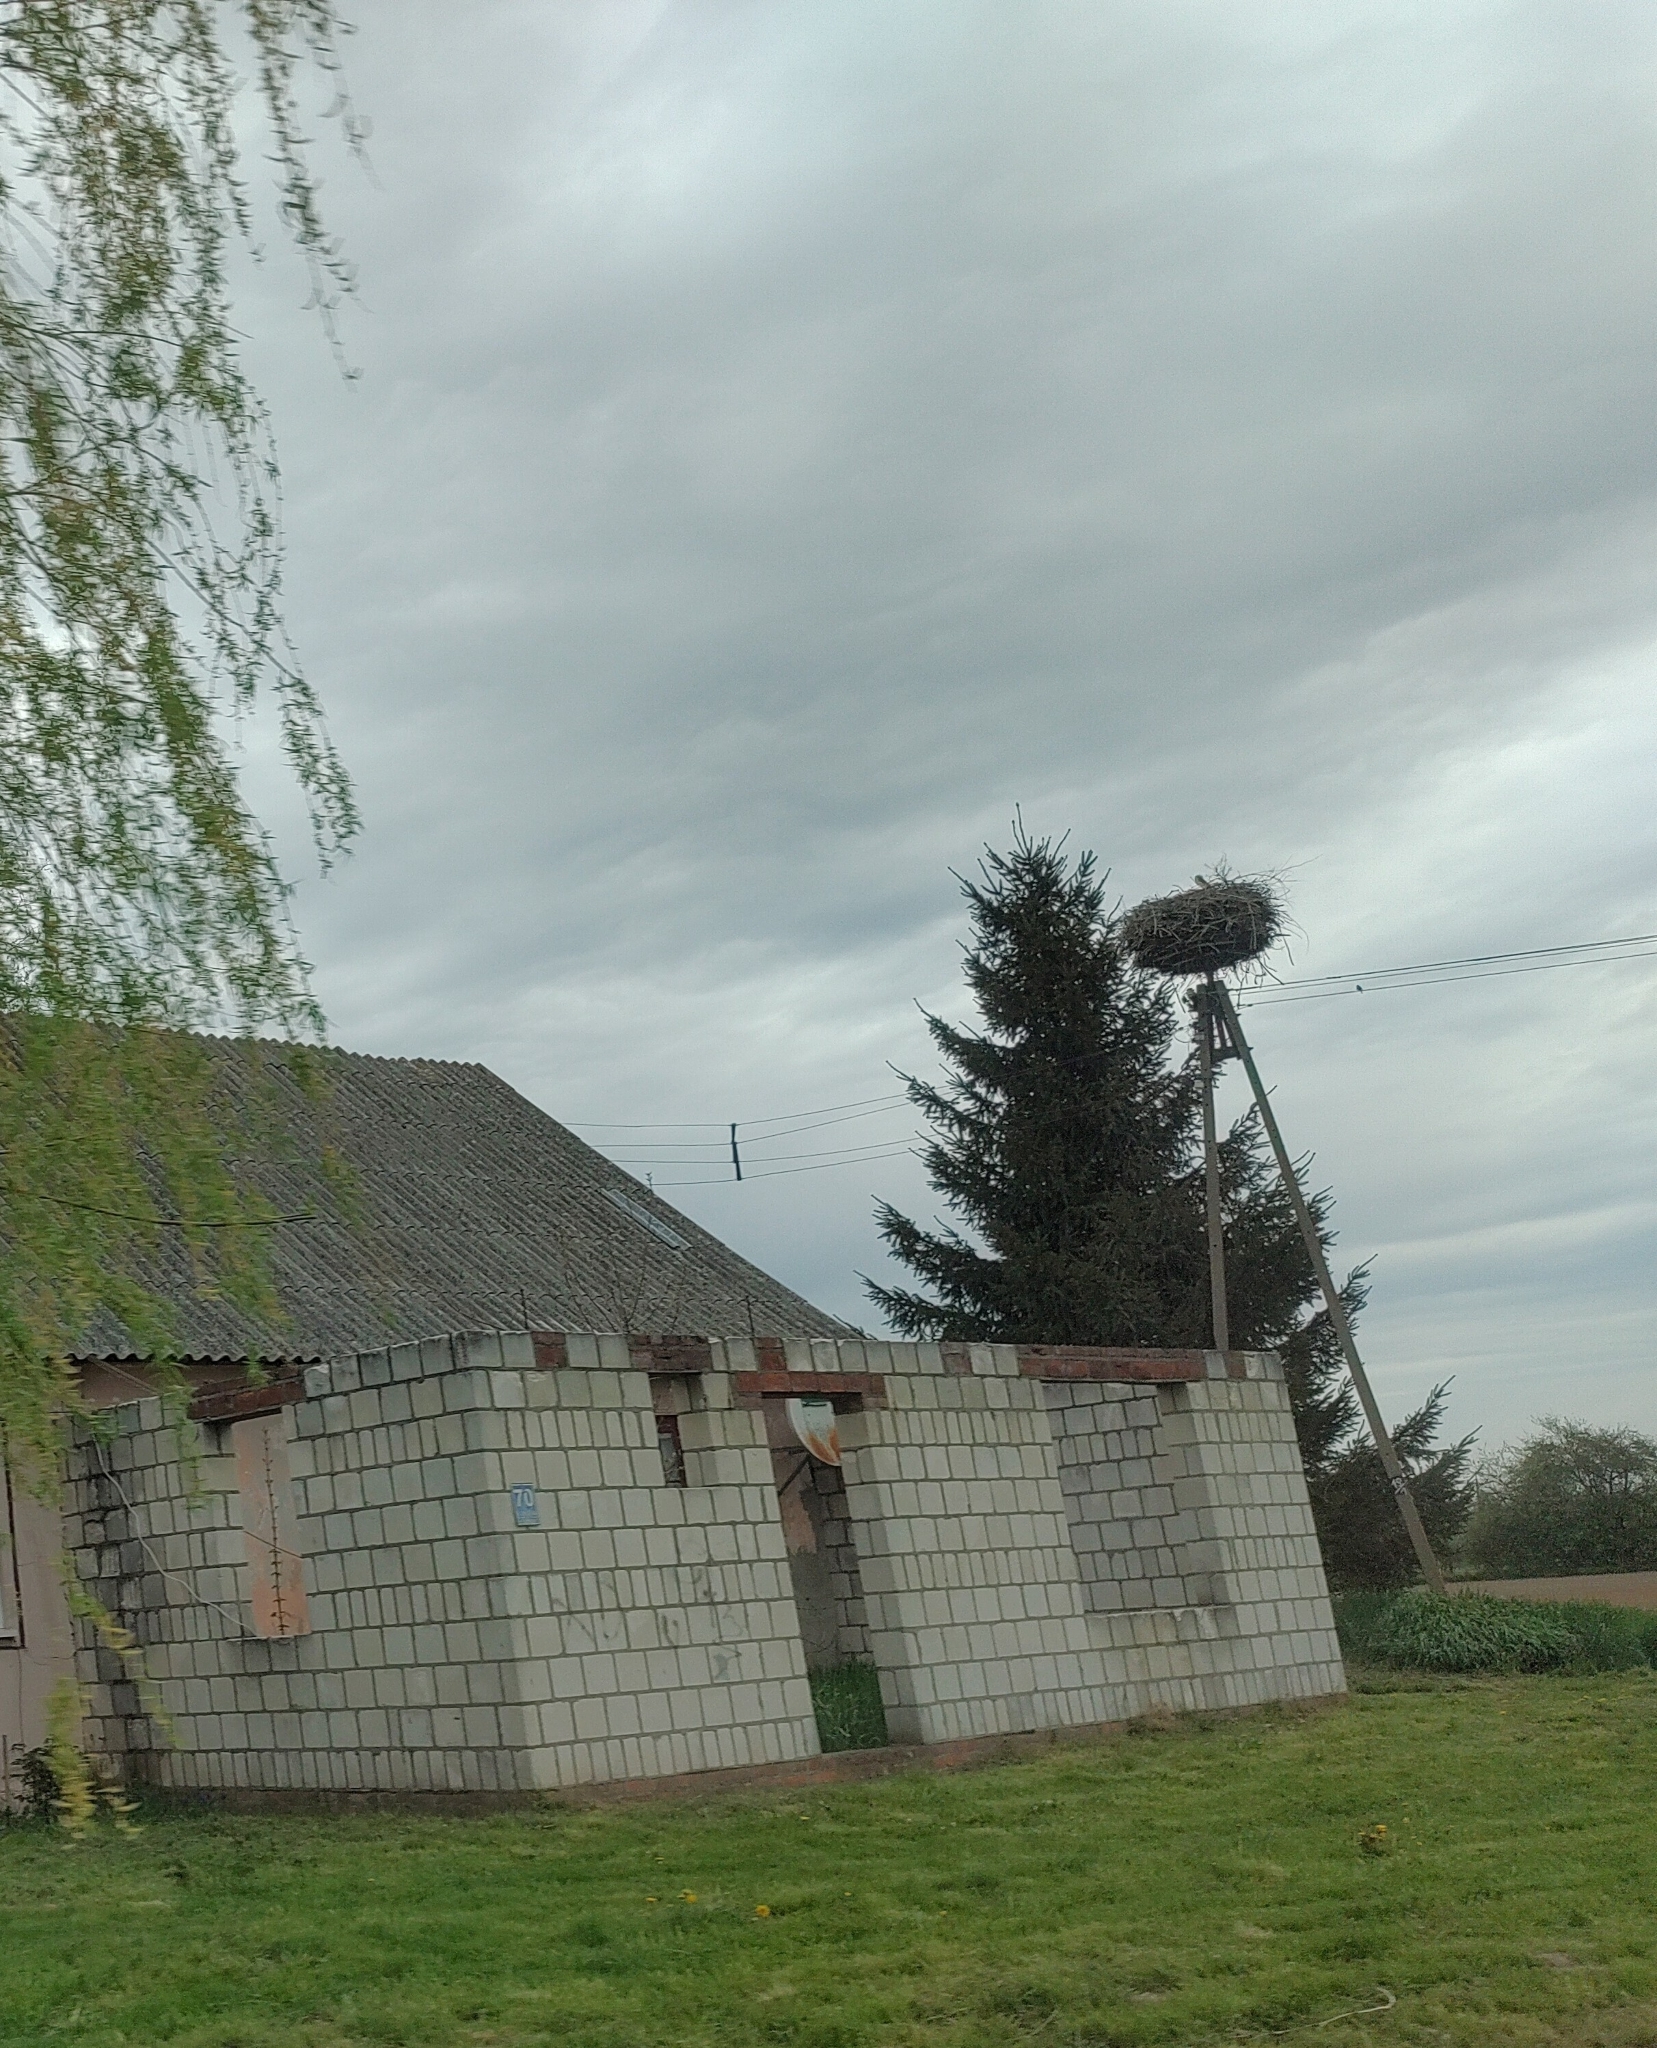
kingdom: Animalia
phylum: Chordata
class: Aves
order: Ciconiiformes
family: Ciconiidae
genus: Ciconia
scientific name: Ciconia ciconia
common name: White stork
